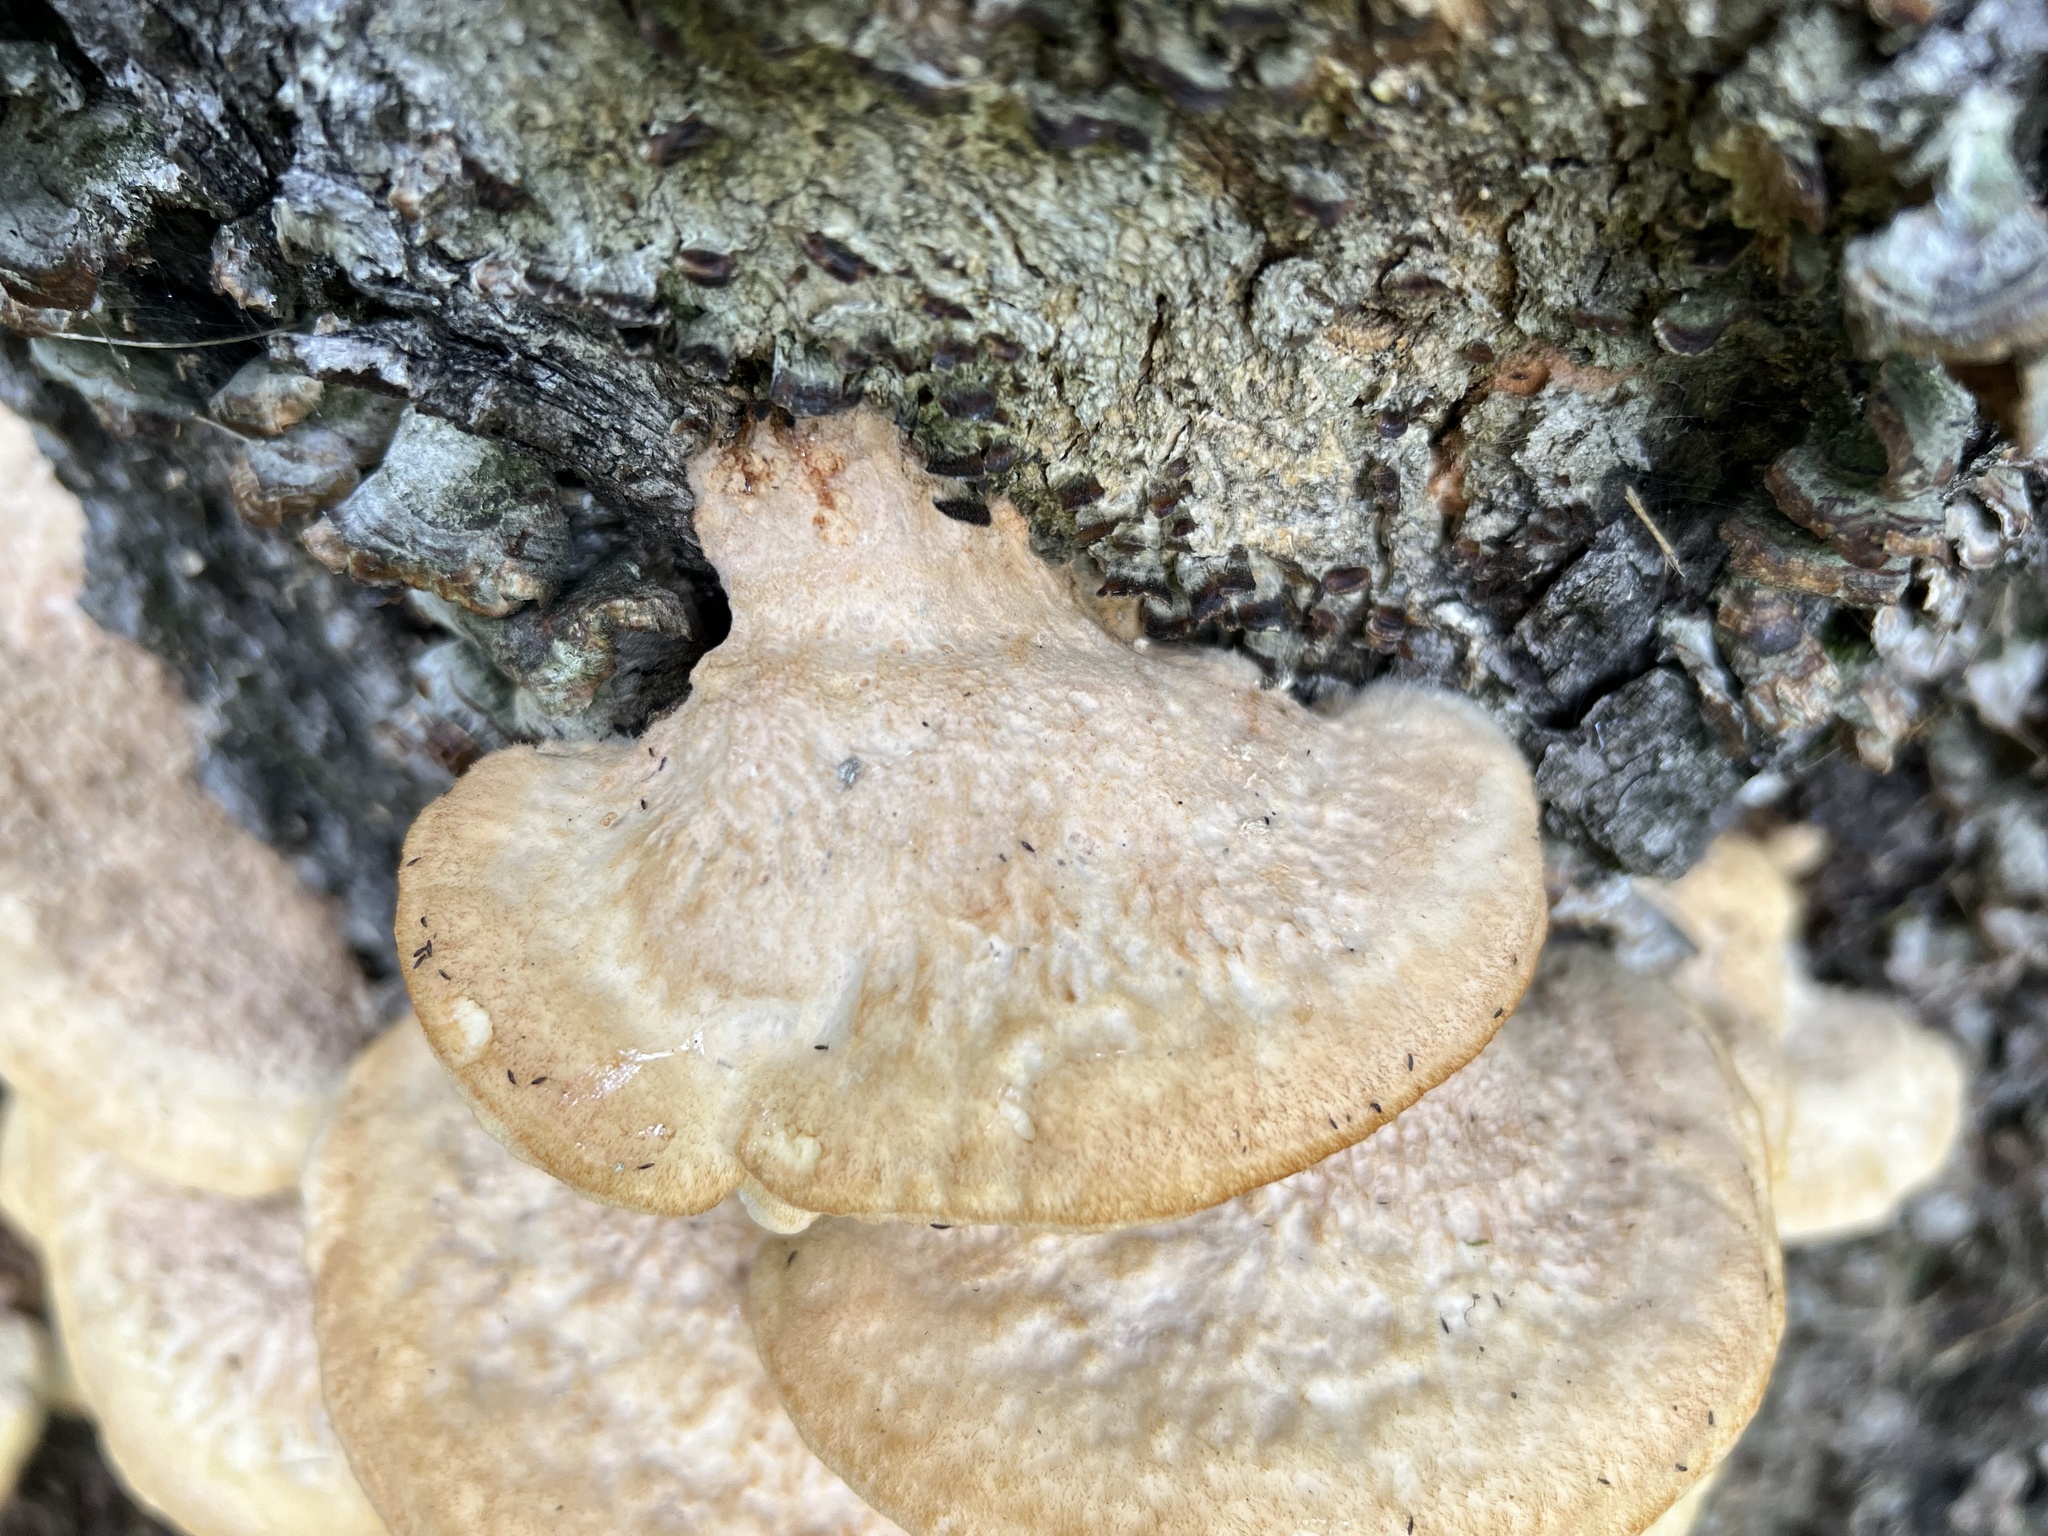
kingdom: Fungi
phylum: Basidiomycota
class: Agaricomycetes
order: Polyporales
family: Meruliaceae
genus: Donkia
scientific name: Donkia pulcherrima
